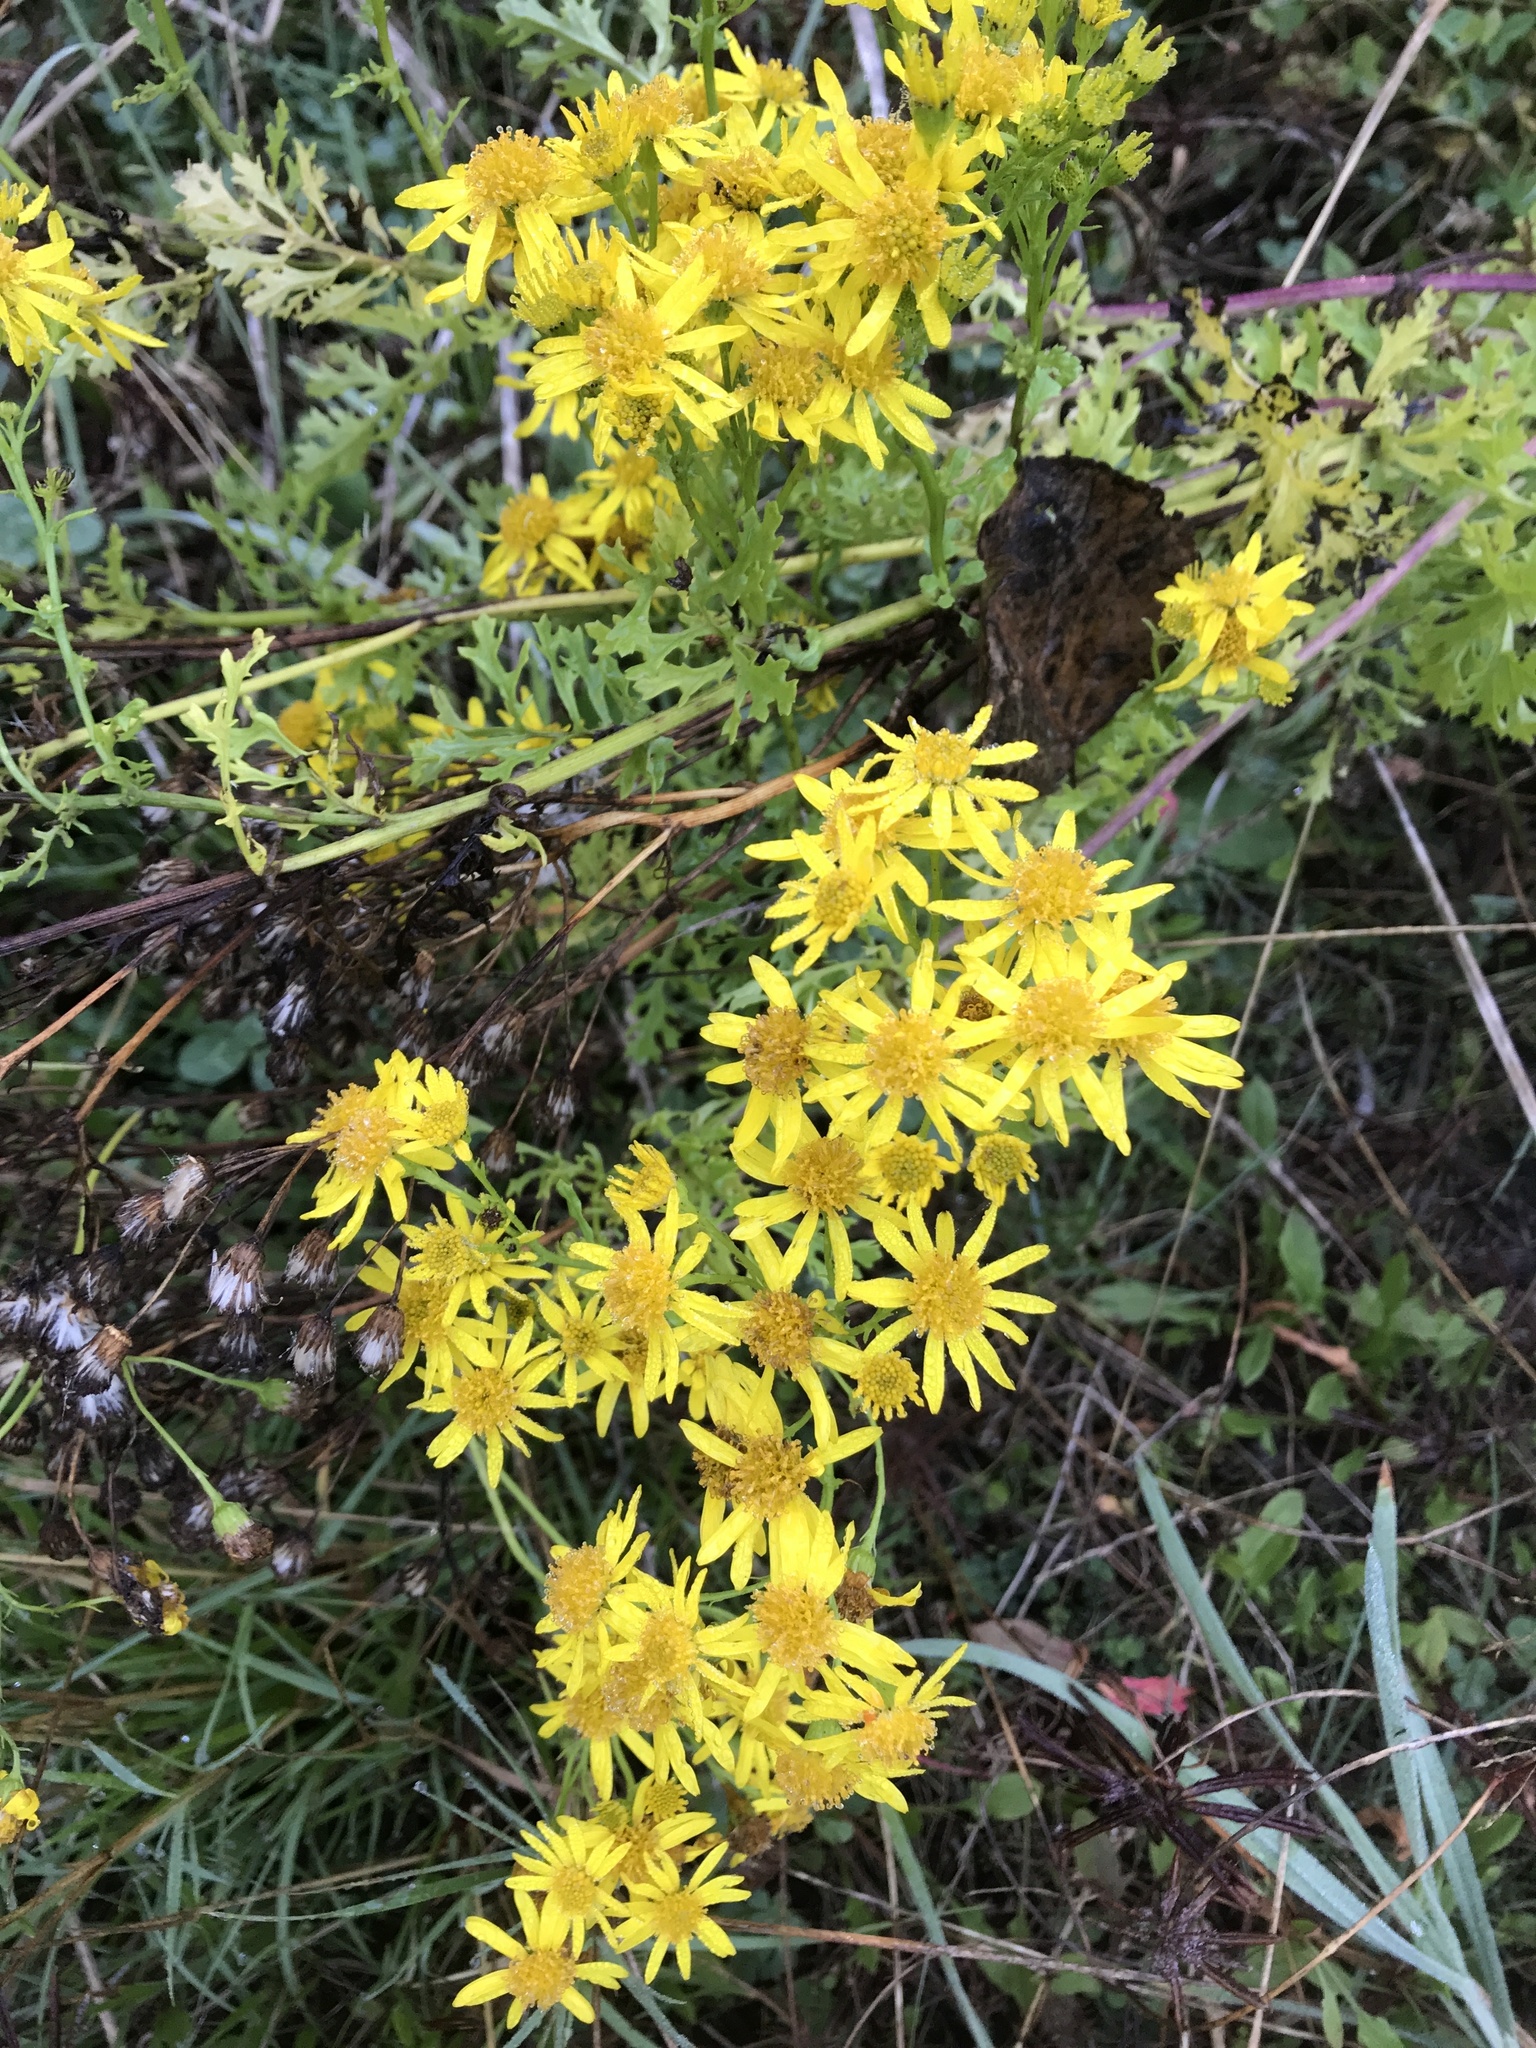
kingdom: Plantae
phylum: Tracheophyta
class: Magnoliopsida
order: Asterales
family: Asteraceae
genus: Jacobaea
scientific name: Jacobaea vulgaris
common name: Stinking willie
